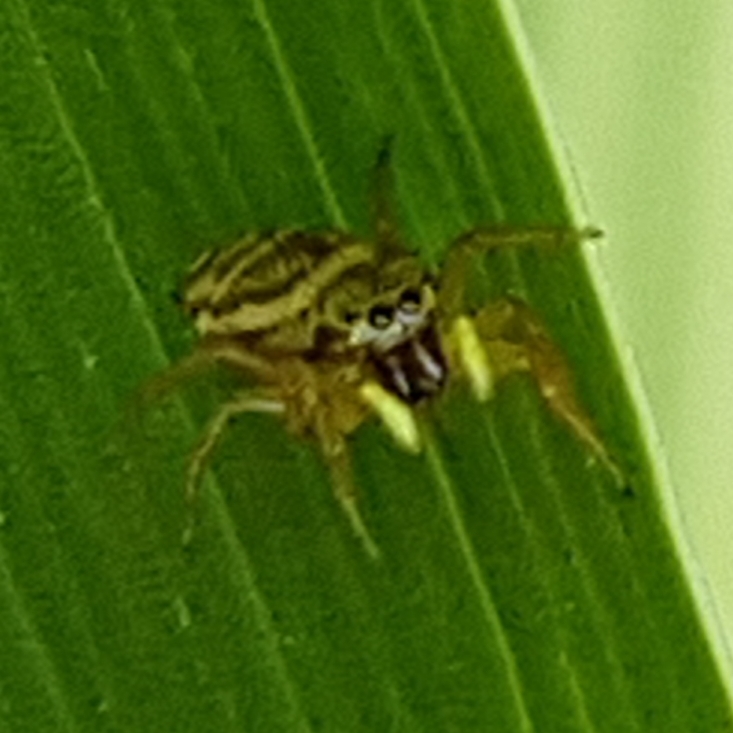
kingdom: Animalia
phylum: Arthropoda
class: Arachnida
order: Araneae
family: Salticidae
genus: Heliophanus
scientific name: Heliophanus tribulosus
